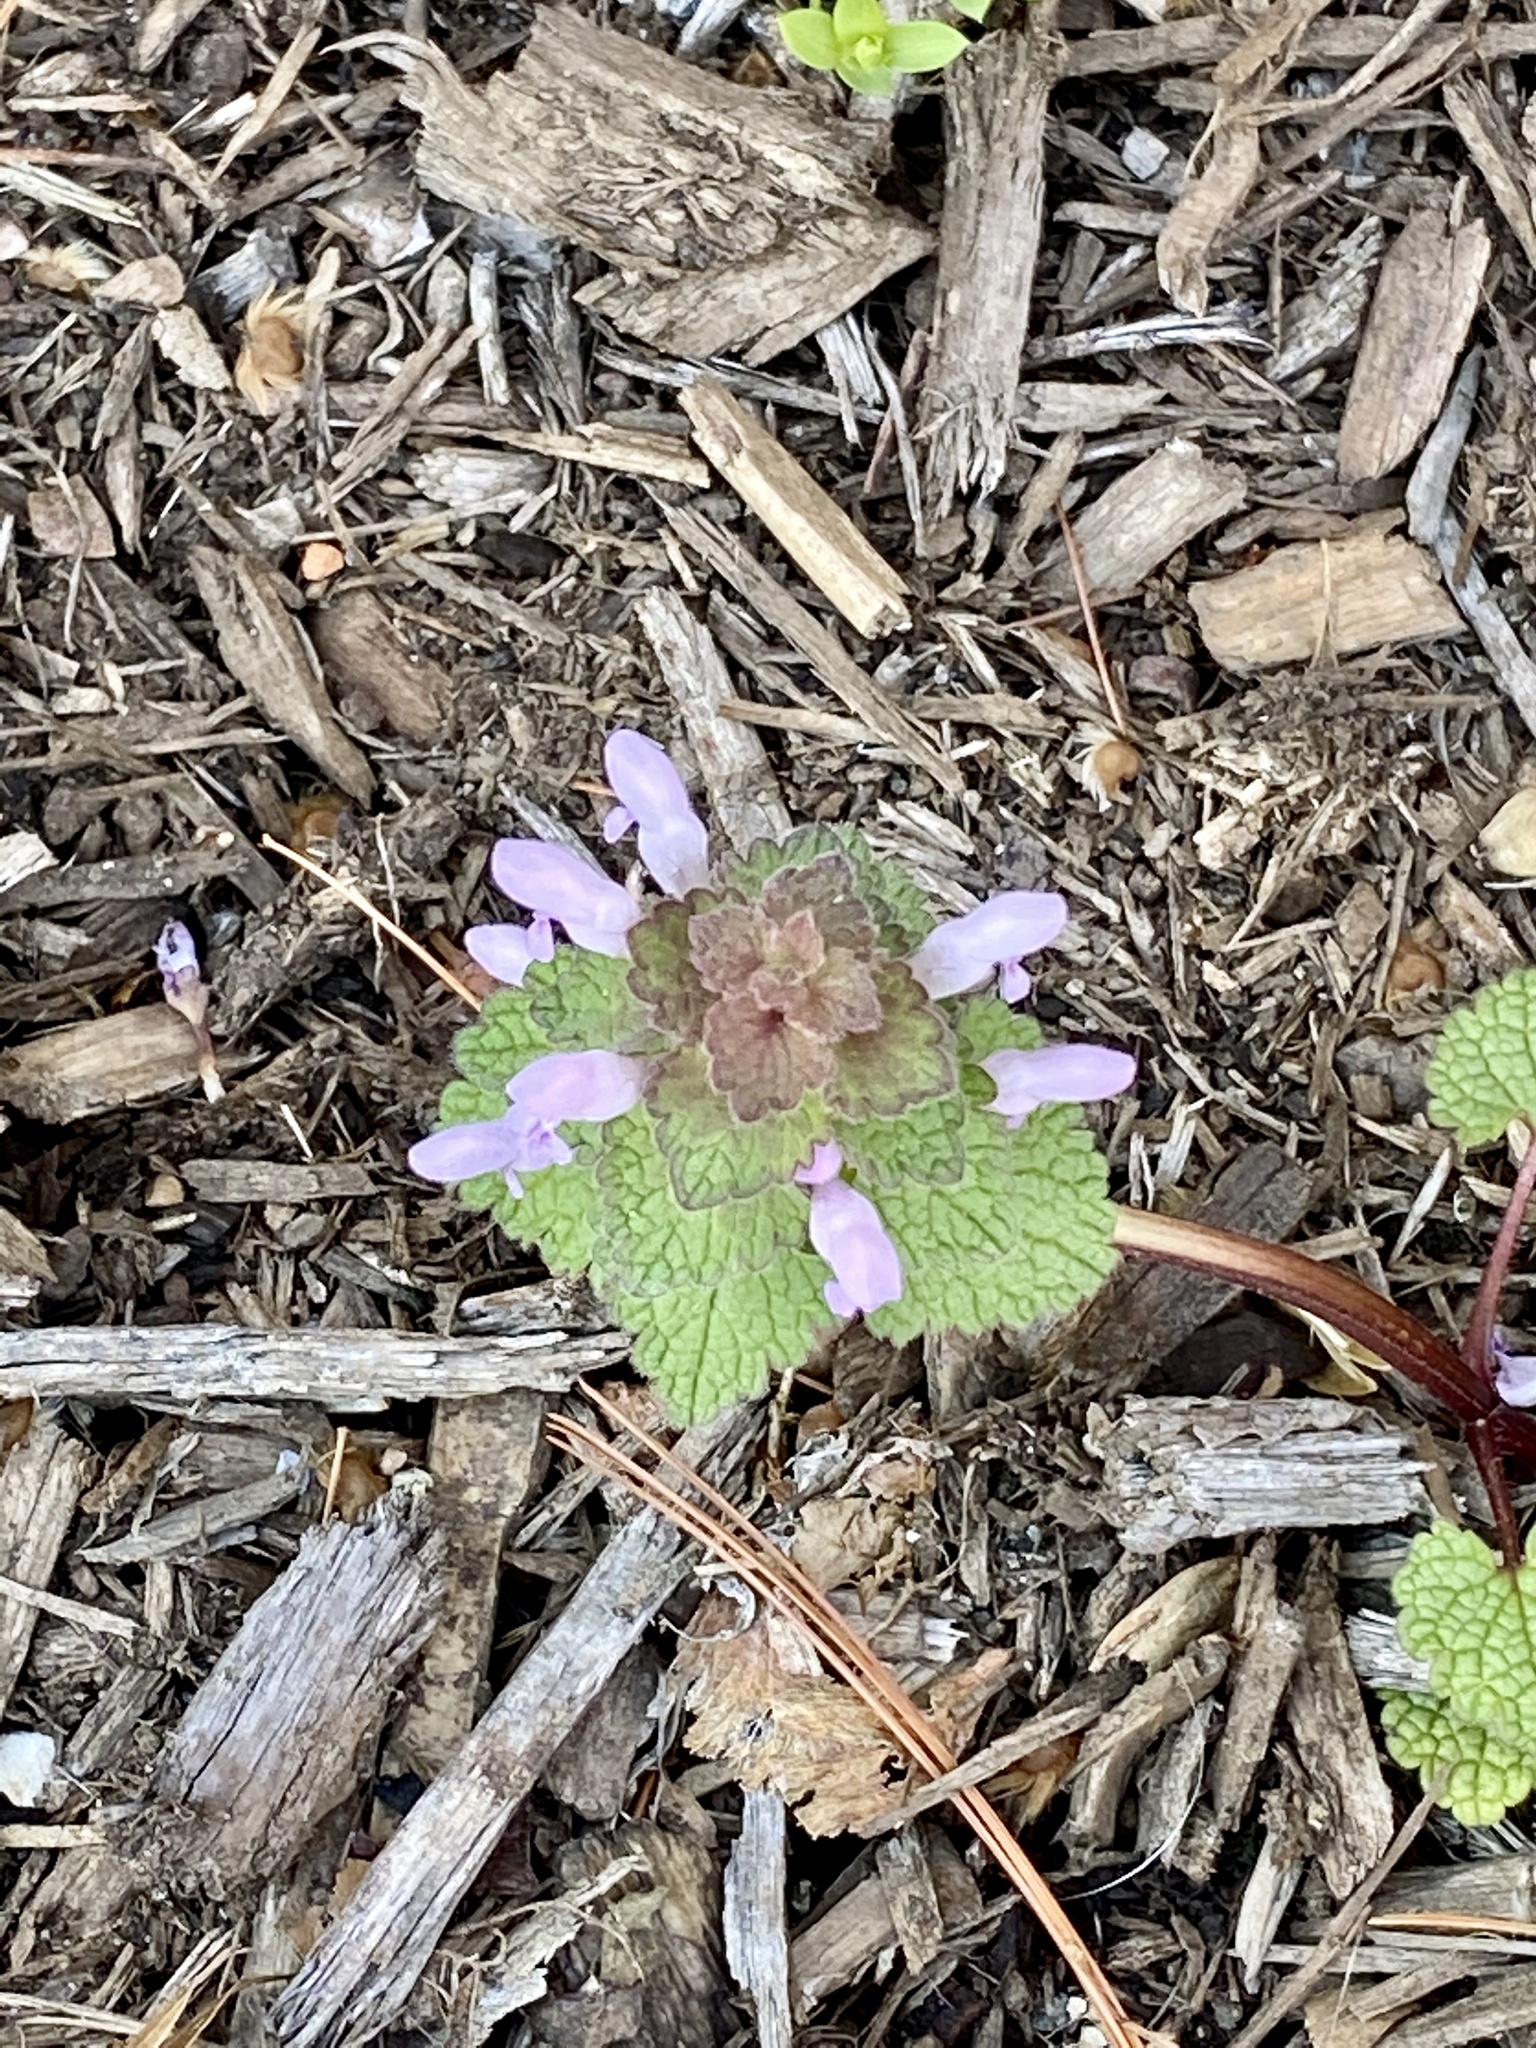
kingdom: Plantae
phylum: Tracheophyta
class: Magnoliopsida
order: Lamiales
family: Lamiaceae
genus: Lamium
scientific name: Lamium purpureum
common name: Red dead-nettle
